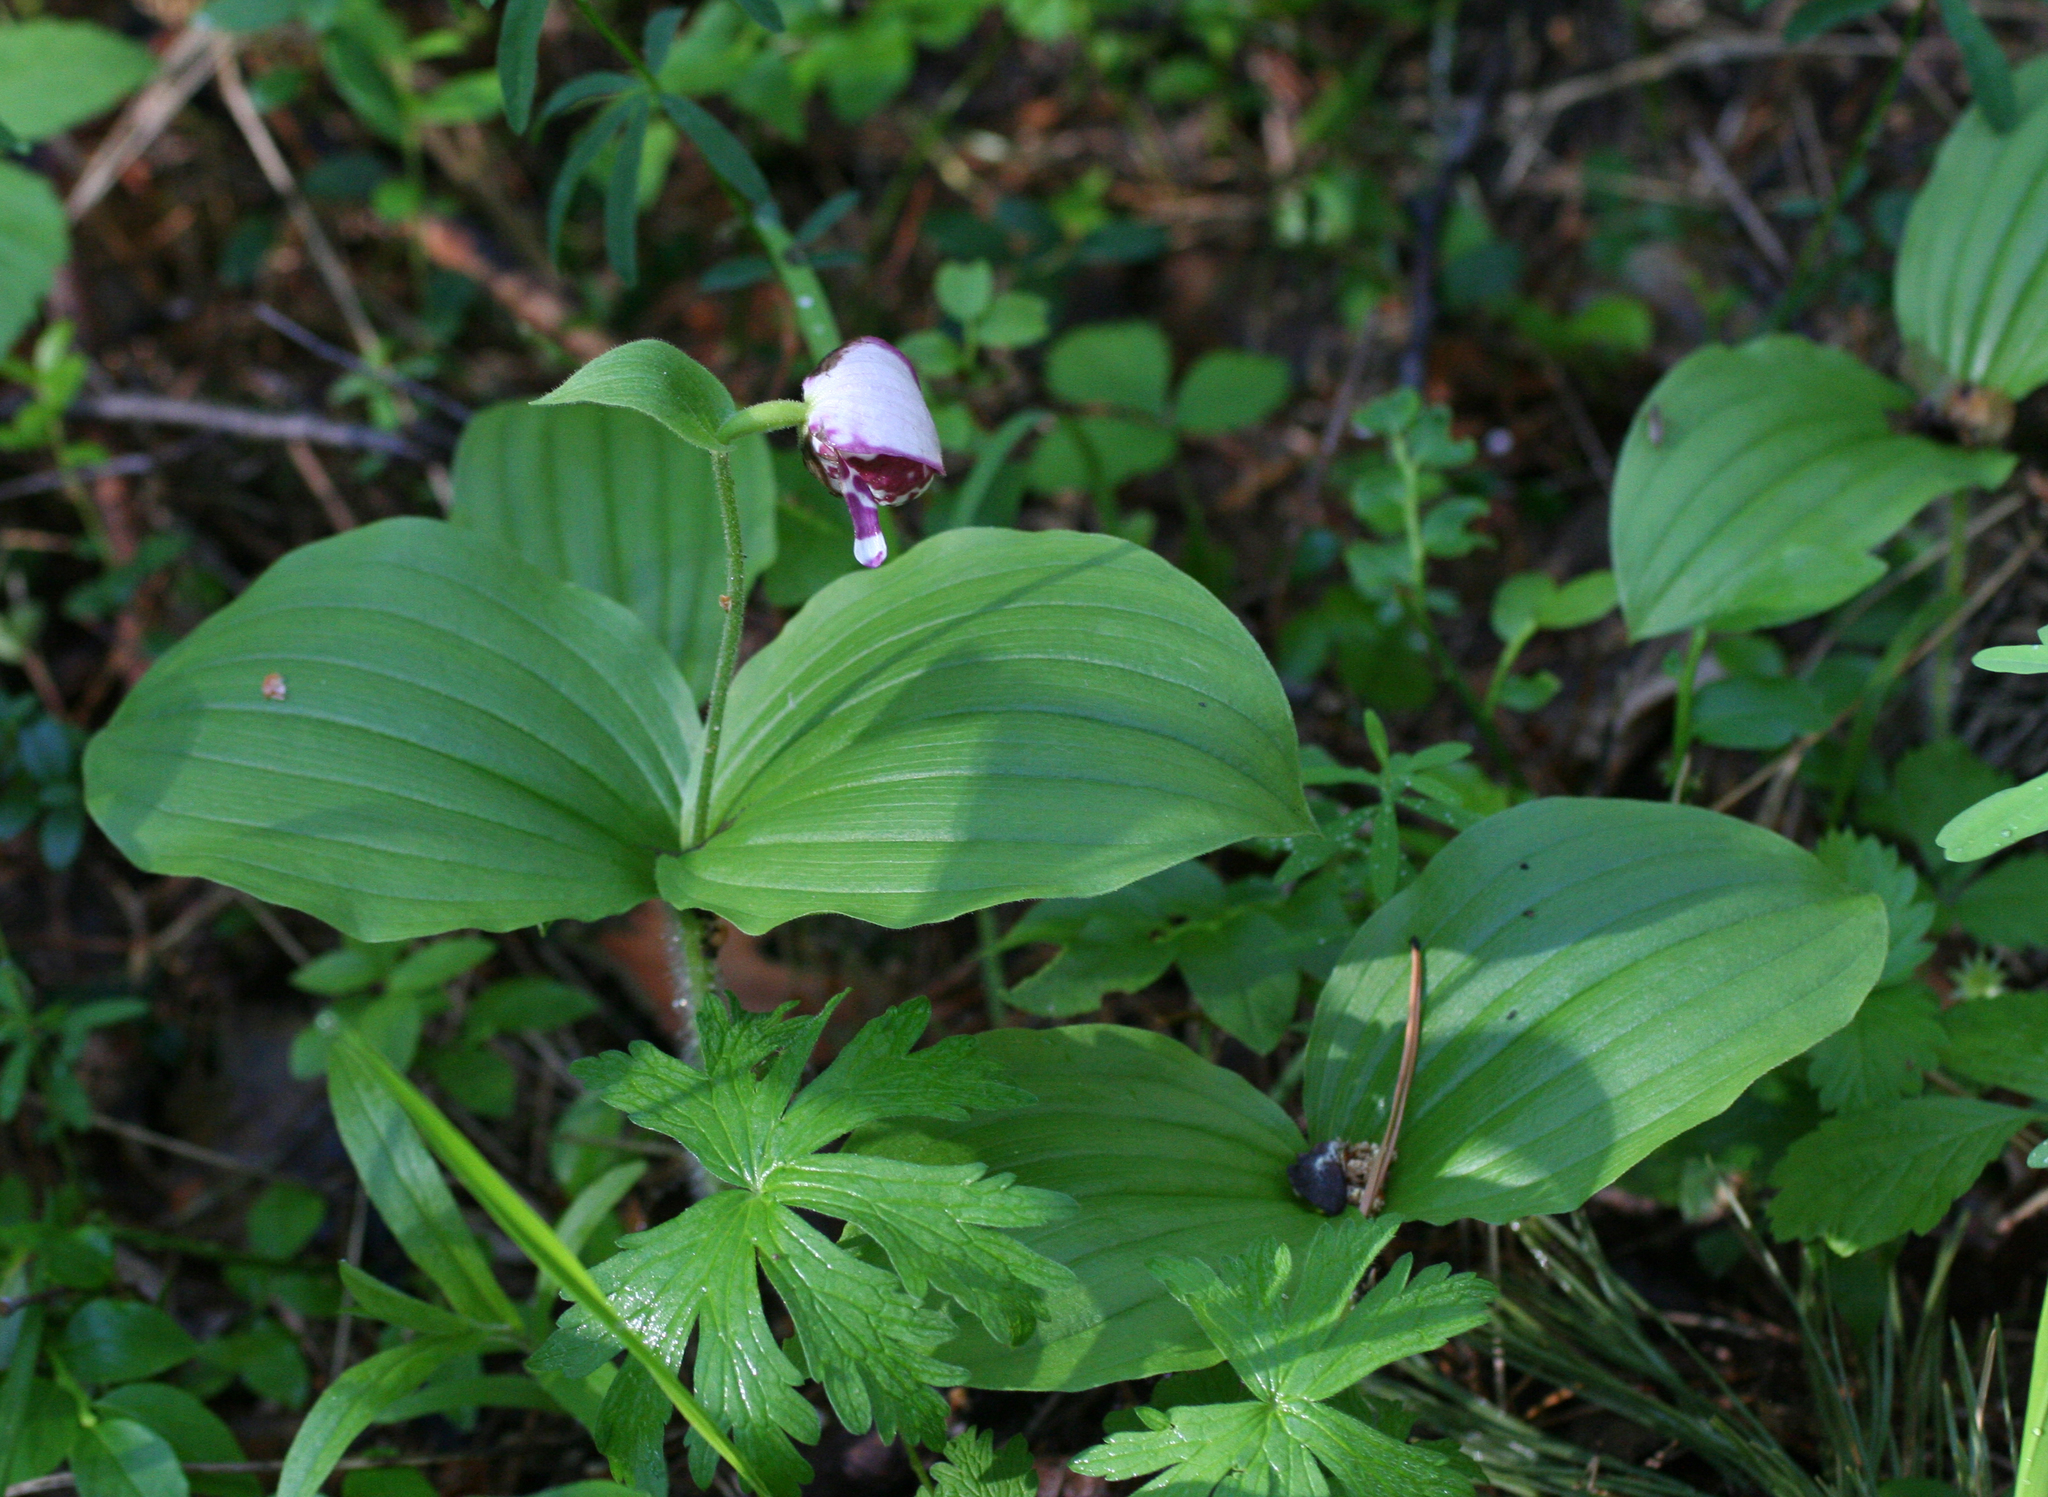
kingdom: Plantae
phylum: Tracheophyta
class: Liliopsida
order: Asparagales
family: Orchidaceae
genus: Cypripedium
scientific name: Cypripedium guttatum
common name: Pink lady slipper
